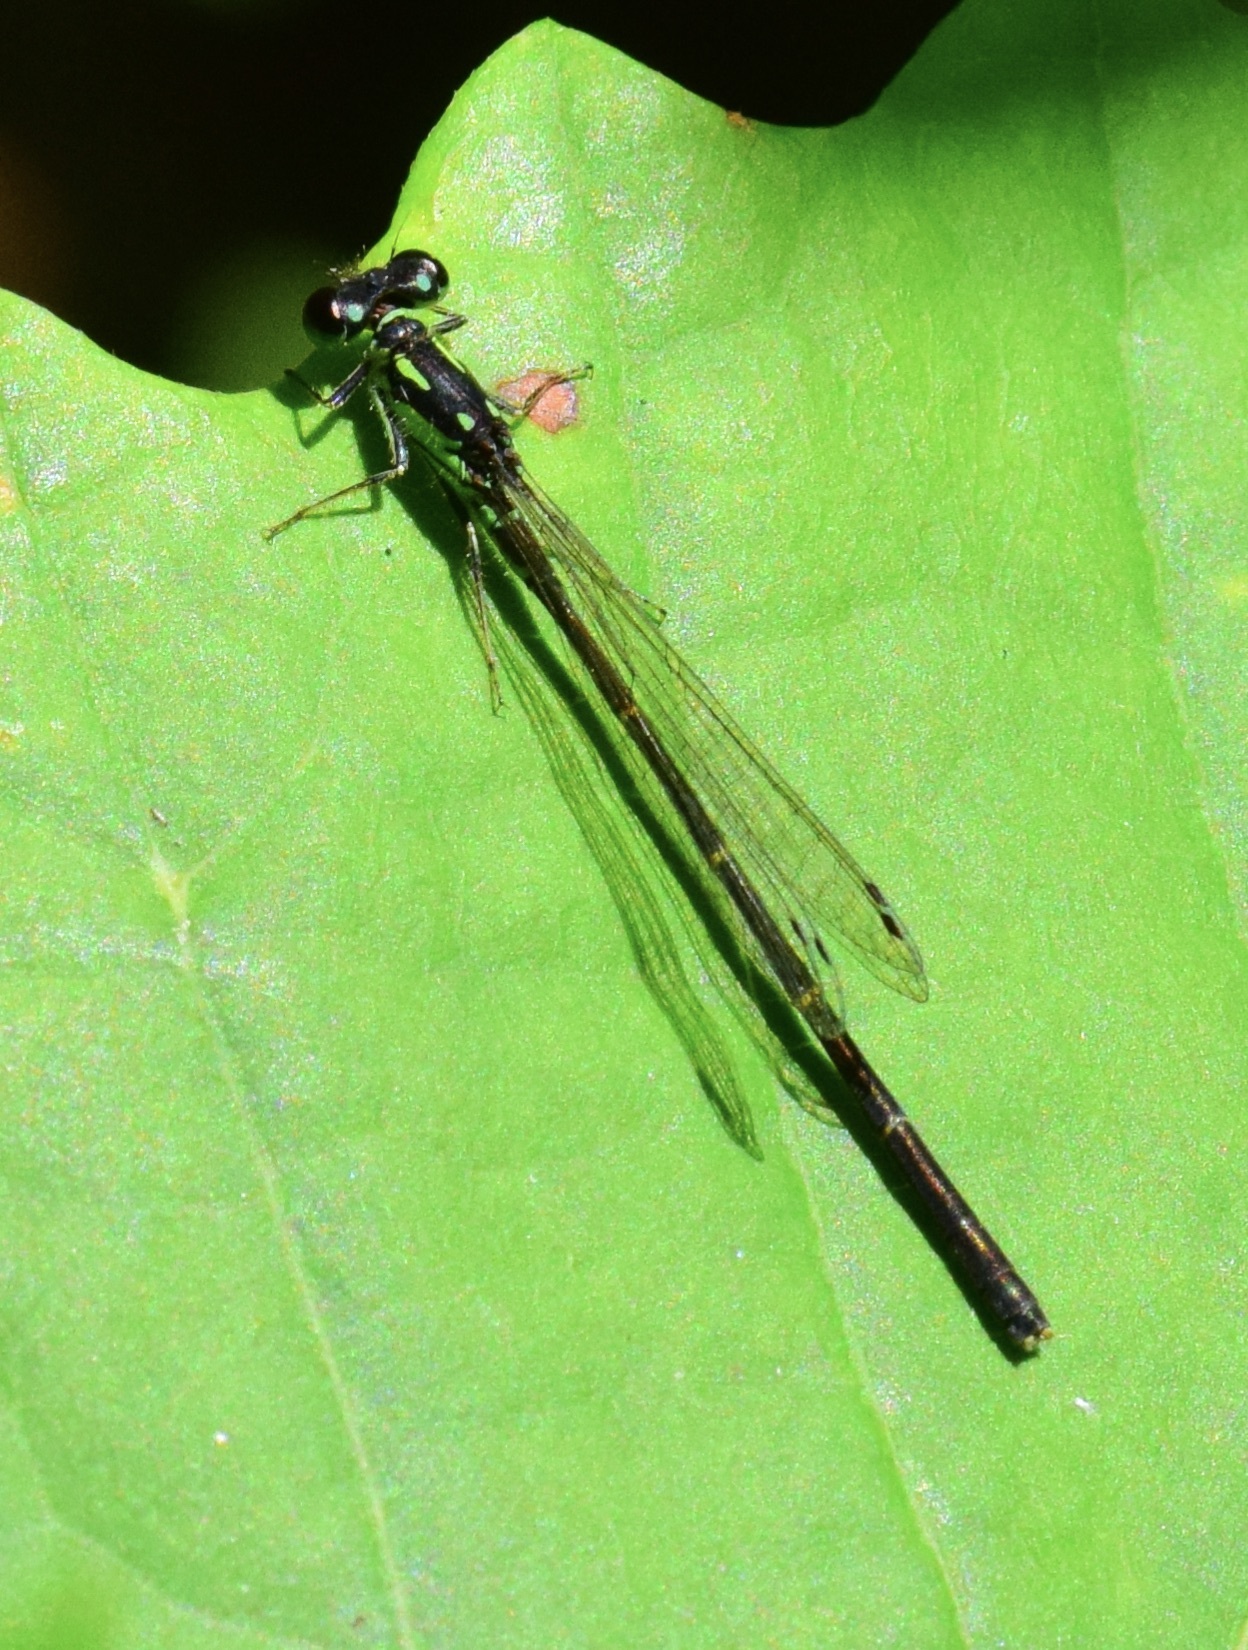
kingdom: Animalia
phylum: Arthropoda
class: Insecta
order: Odonata
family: Coenagrionidae
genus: Ischnura
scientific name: Ischnura posita
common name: Fragile forktail
